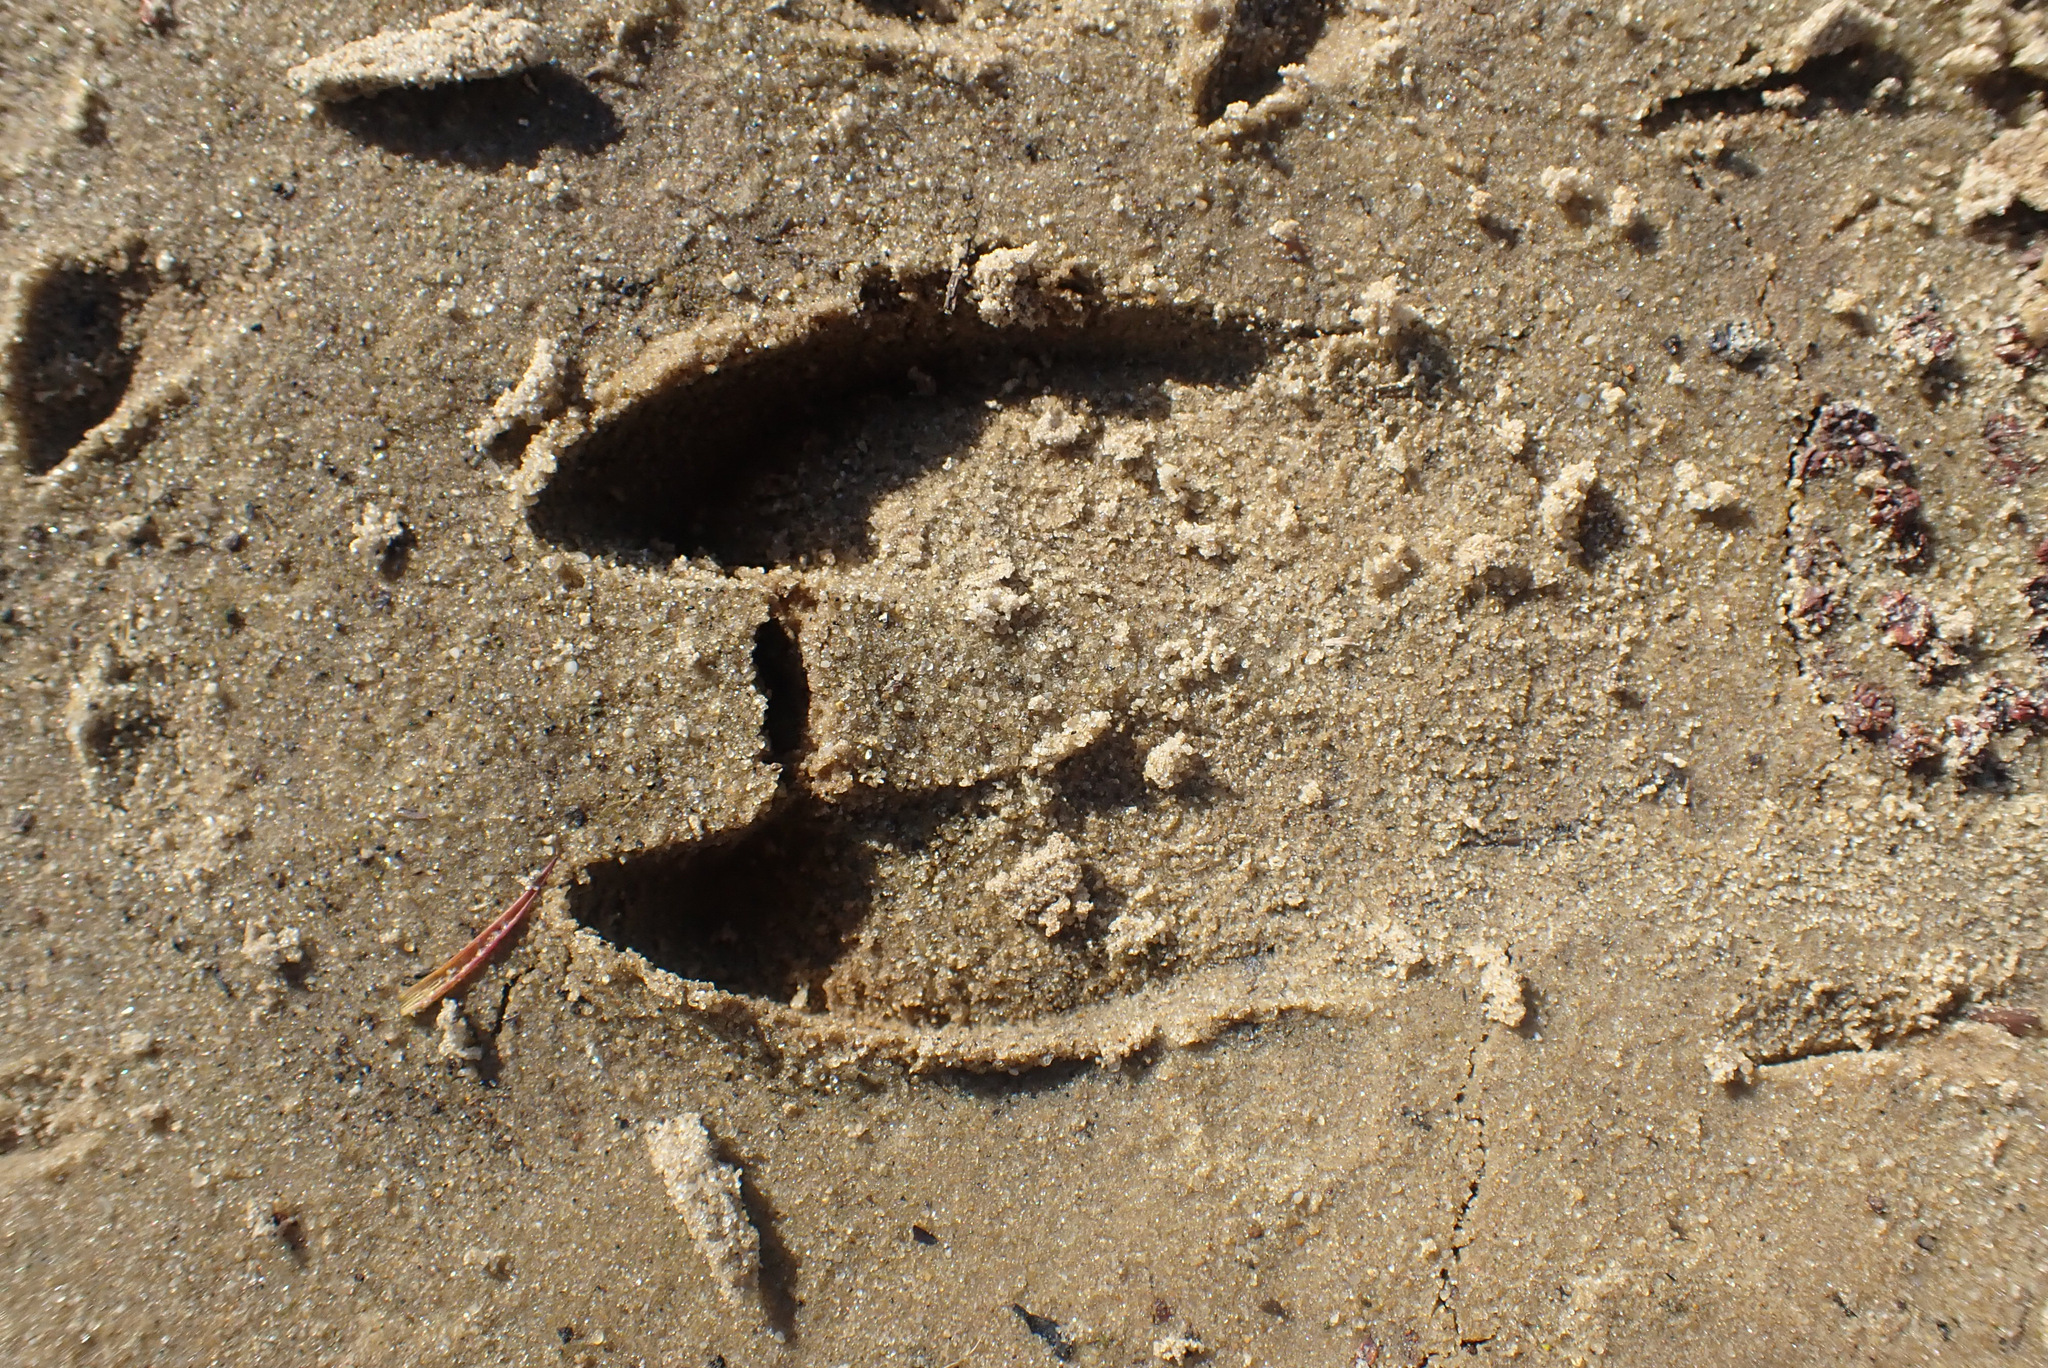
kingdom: Animalia
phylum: Chordata
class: Mammalia
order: Artiodactyla
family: Suidae
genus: Sus
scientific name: Sus scrofa
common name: Wild boar
